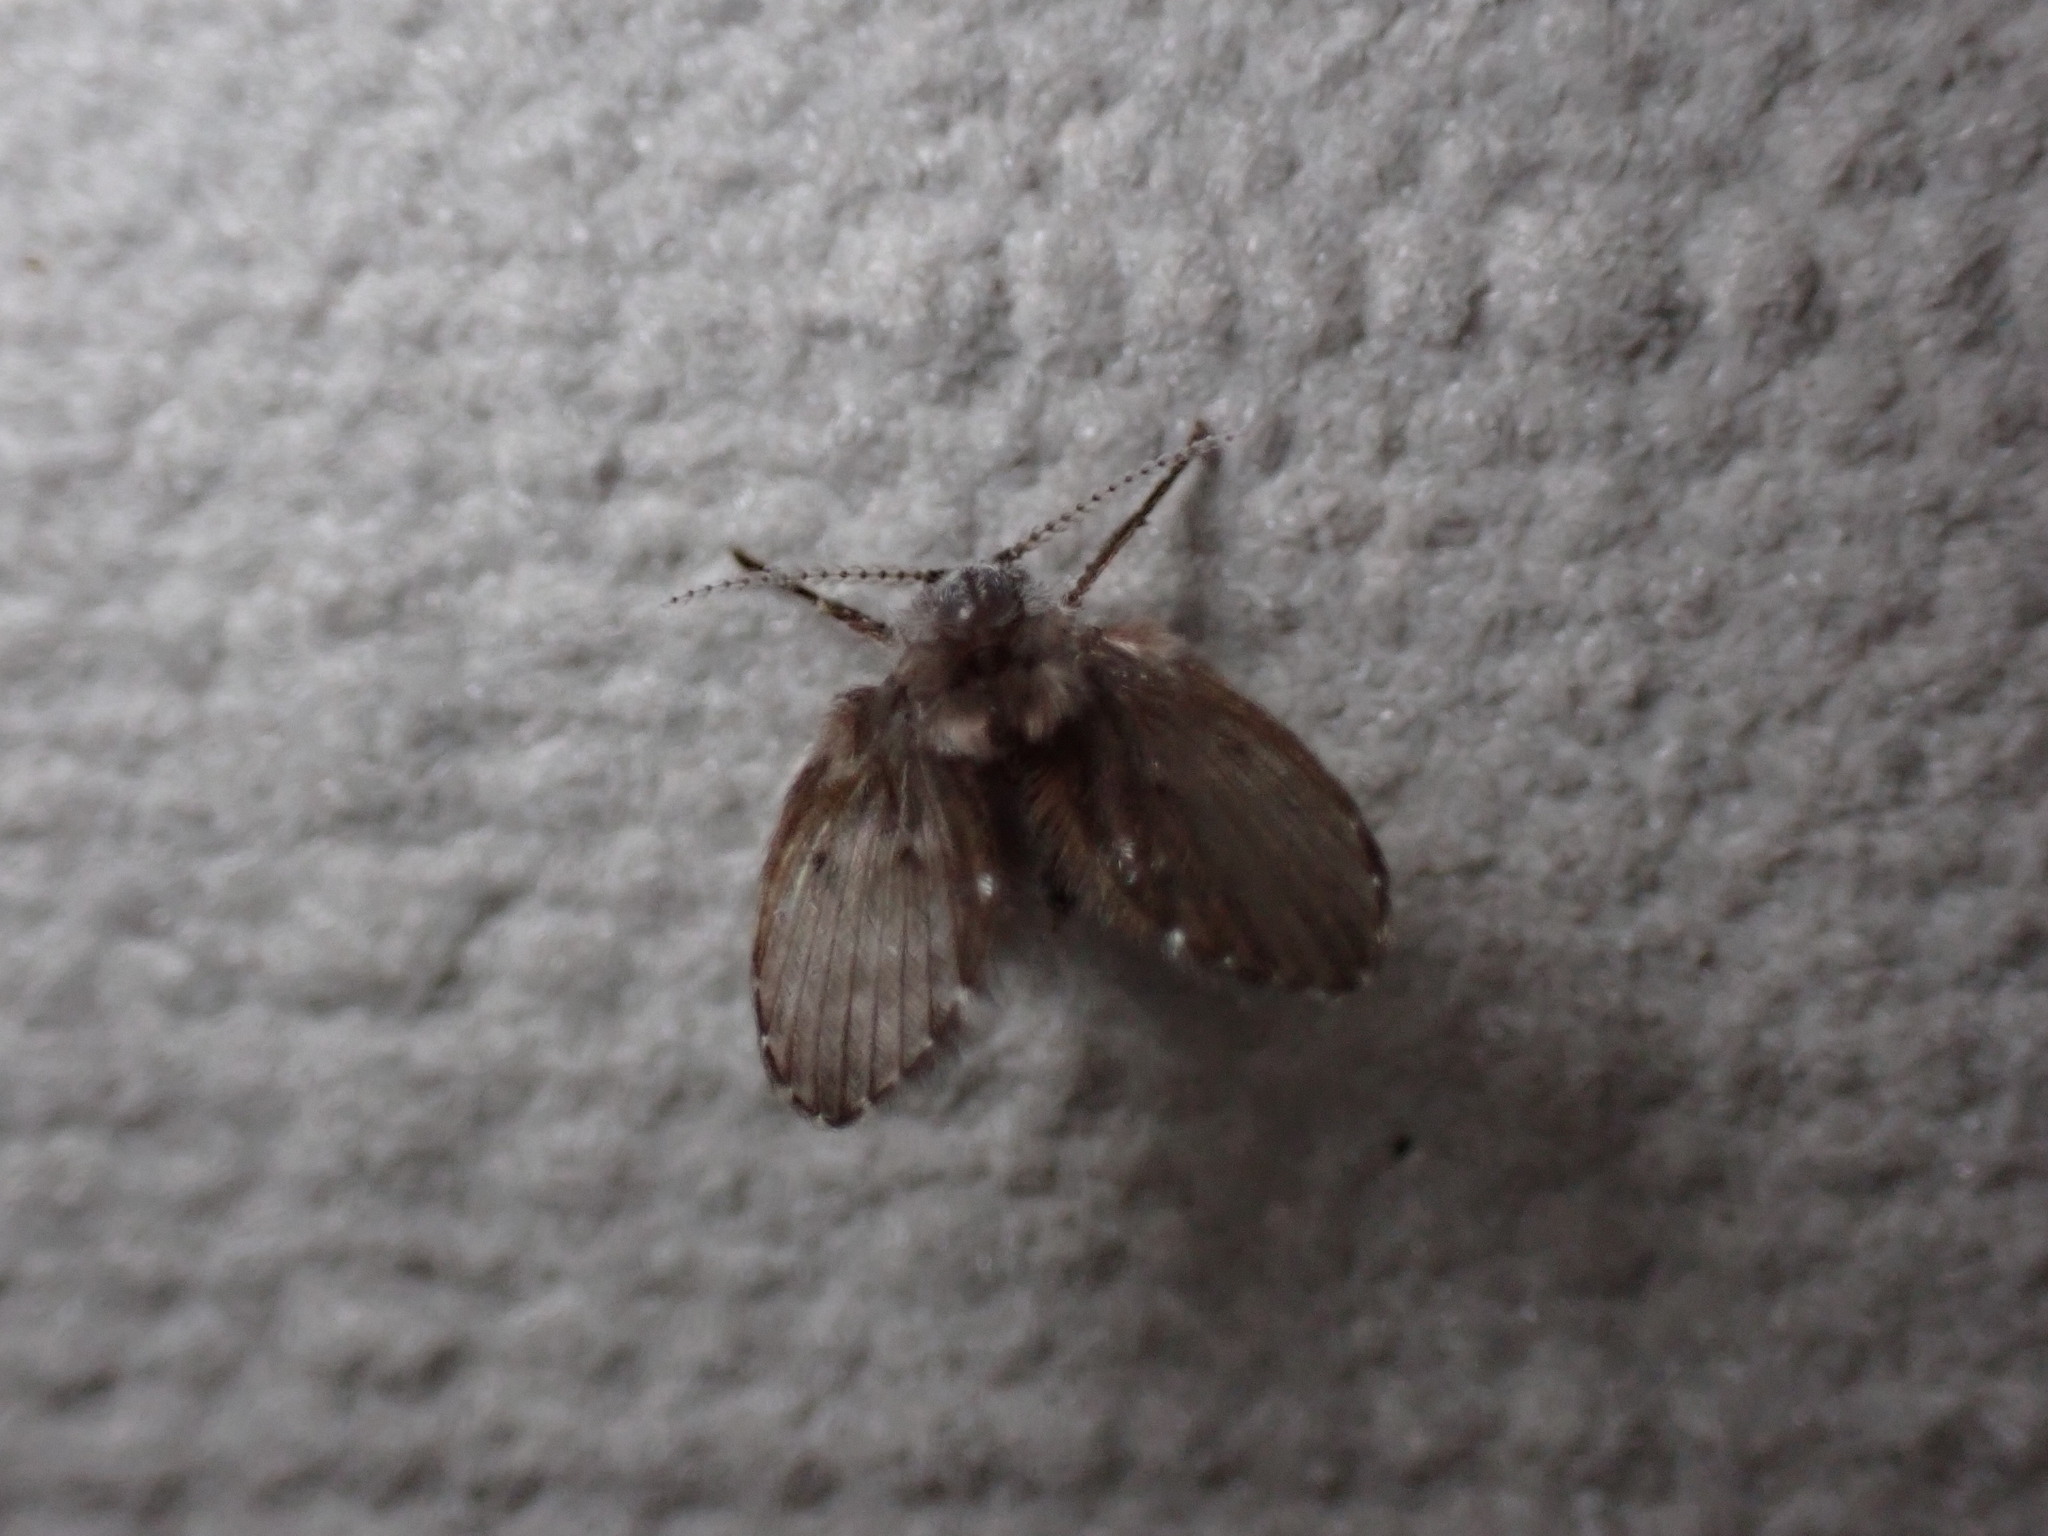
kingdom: Animalia
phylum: Arthropoda
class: Insecta
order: Diptera
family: Psychodidae
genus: Clogmia
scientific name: Clogmia albipunctatus
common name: White-spotted moth fly
